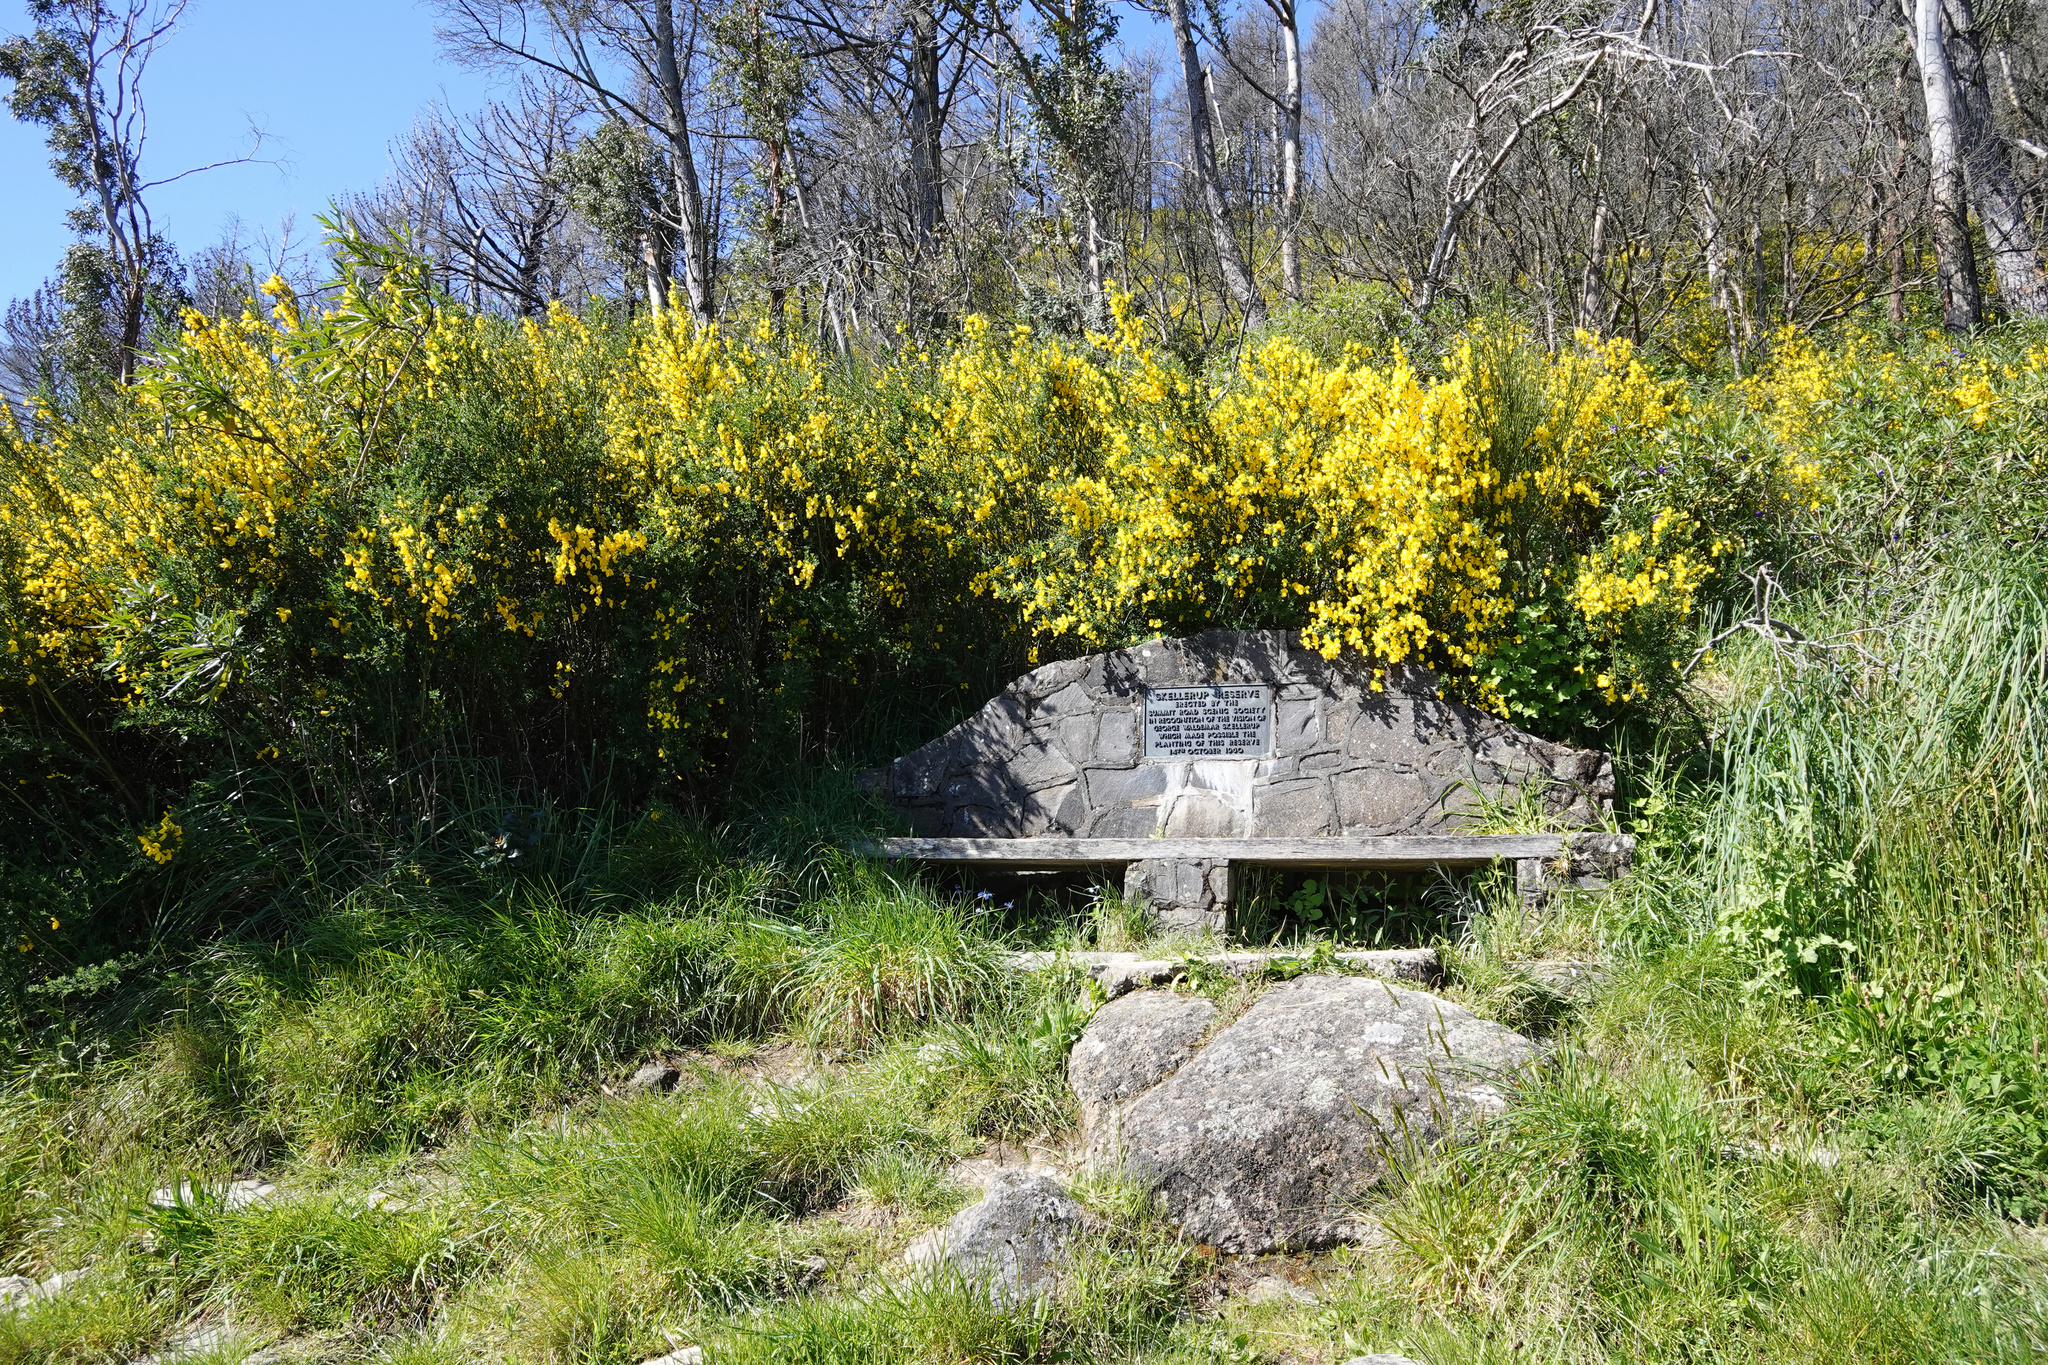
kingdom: Plantae
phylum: Tracheophyta
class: Magnoliopsida
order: Fabales
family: Fabaceae
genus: Cytisus
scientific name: Cytisus scoparius
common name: Scotch broom
